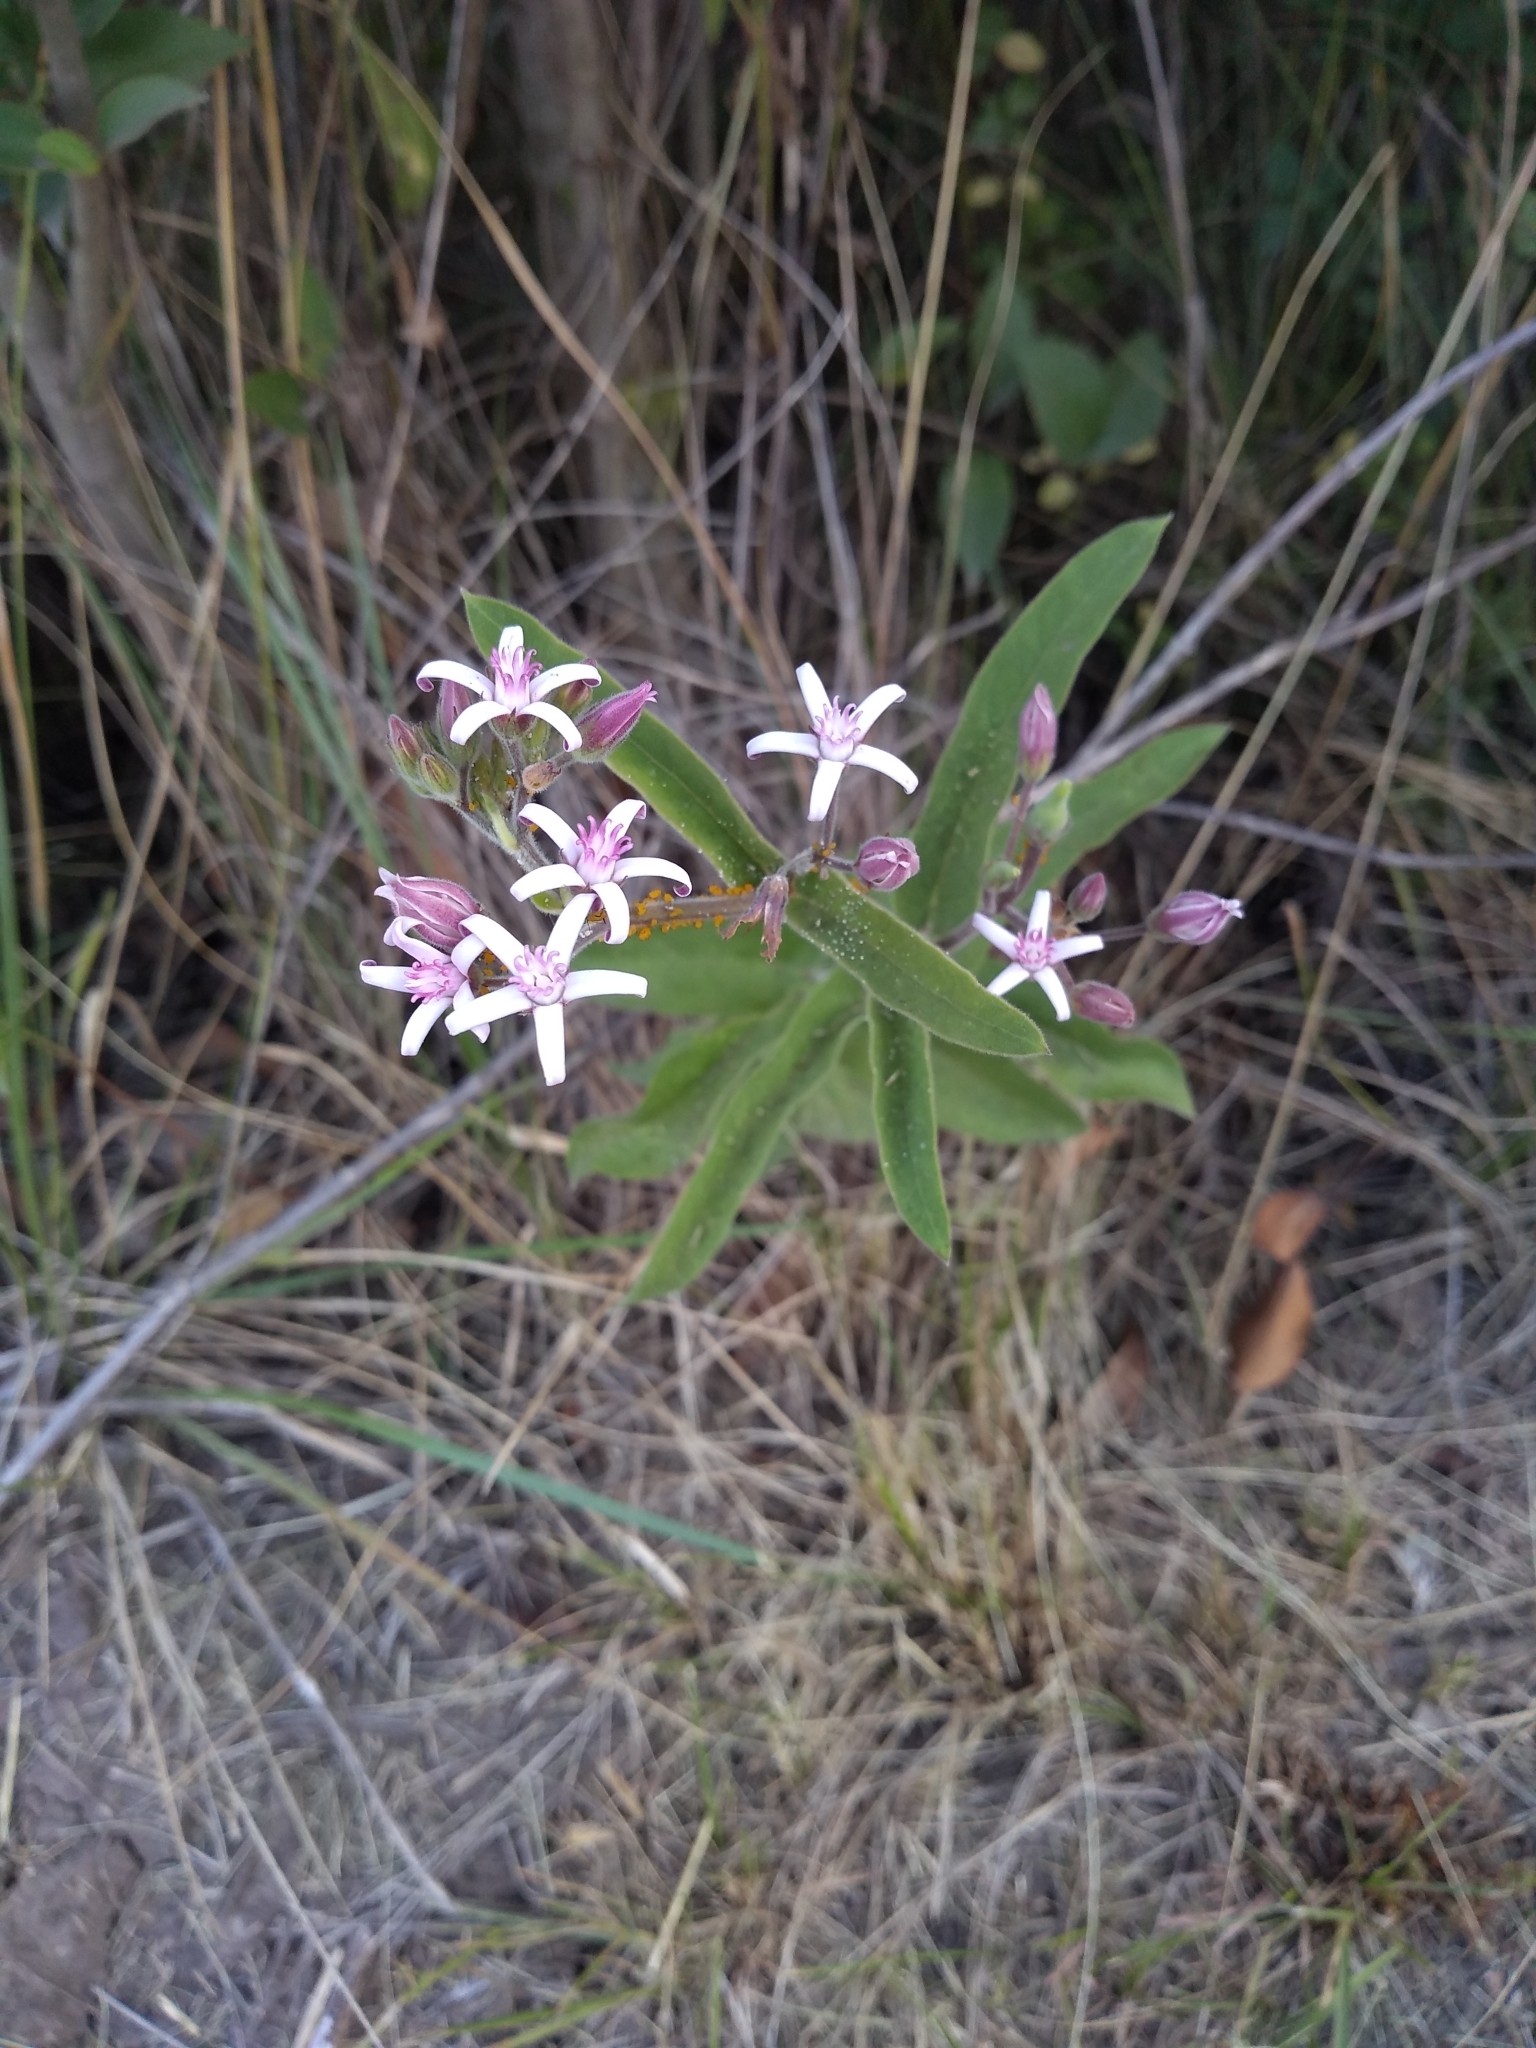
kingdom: Plantae
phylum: Tracheophyta
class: Magnoliopsida
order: Gentianales
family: Apocynaceae
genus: Oxypetalum
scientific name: Oxypetalum solanoides
